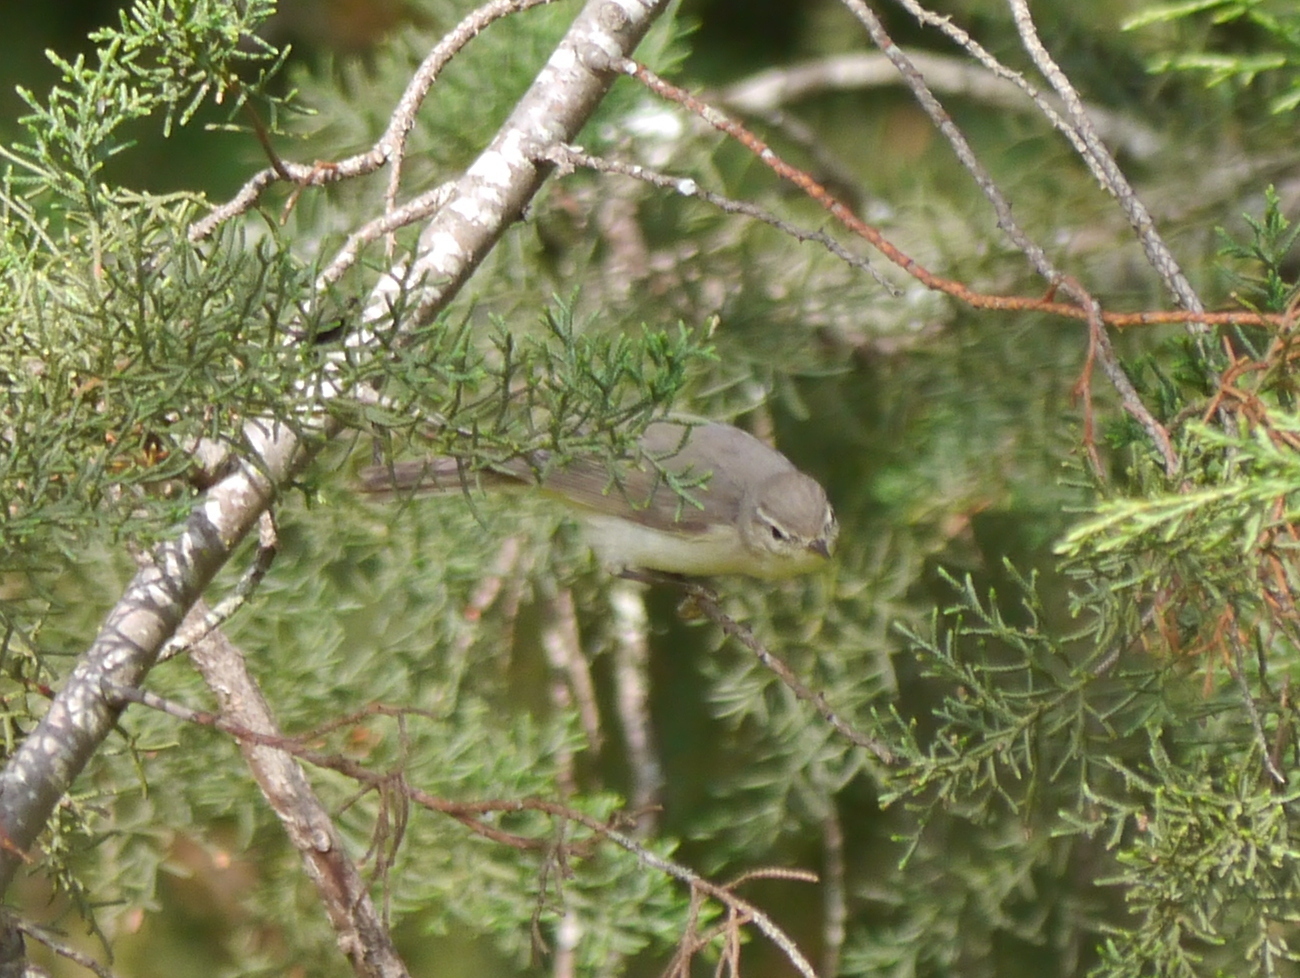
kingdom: Animalia
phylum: Chordata
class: Aves
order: Passeriformes
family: Phylloscopidae
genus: Phylloscopus
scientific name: Phylloscopus trochilus
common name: Willow warbler
